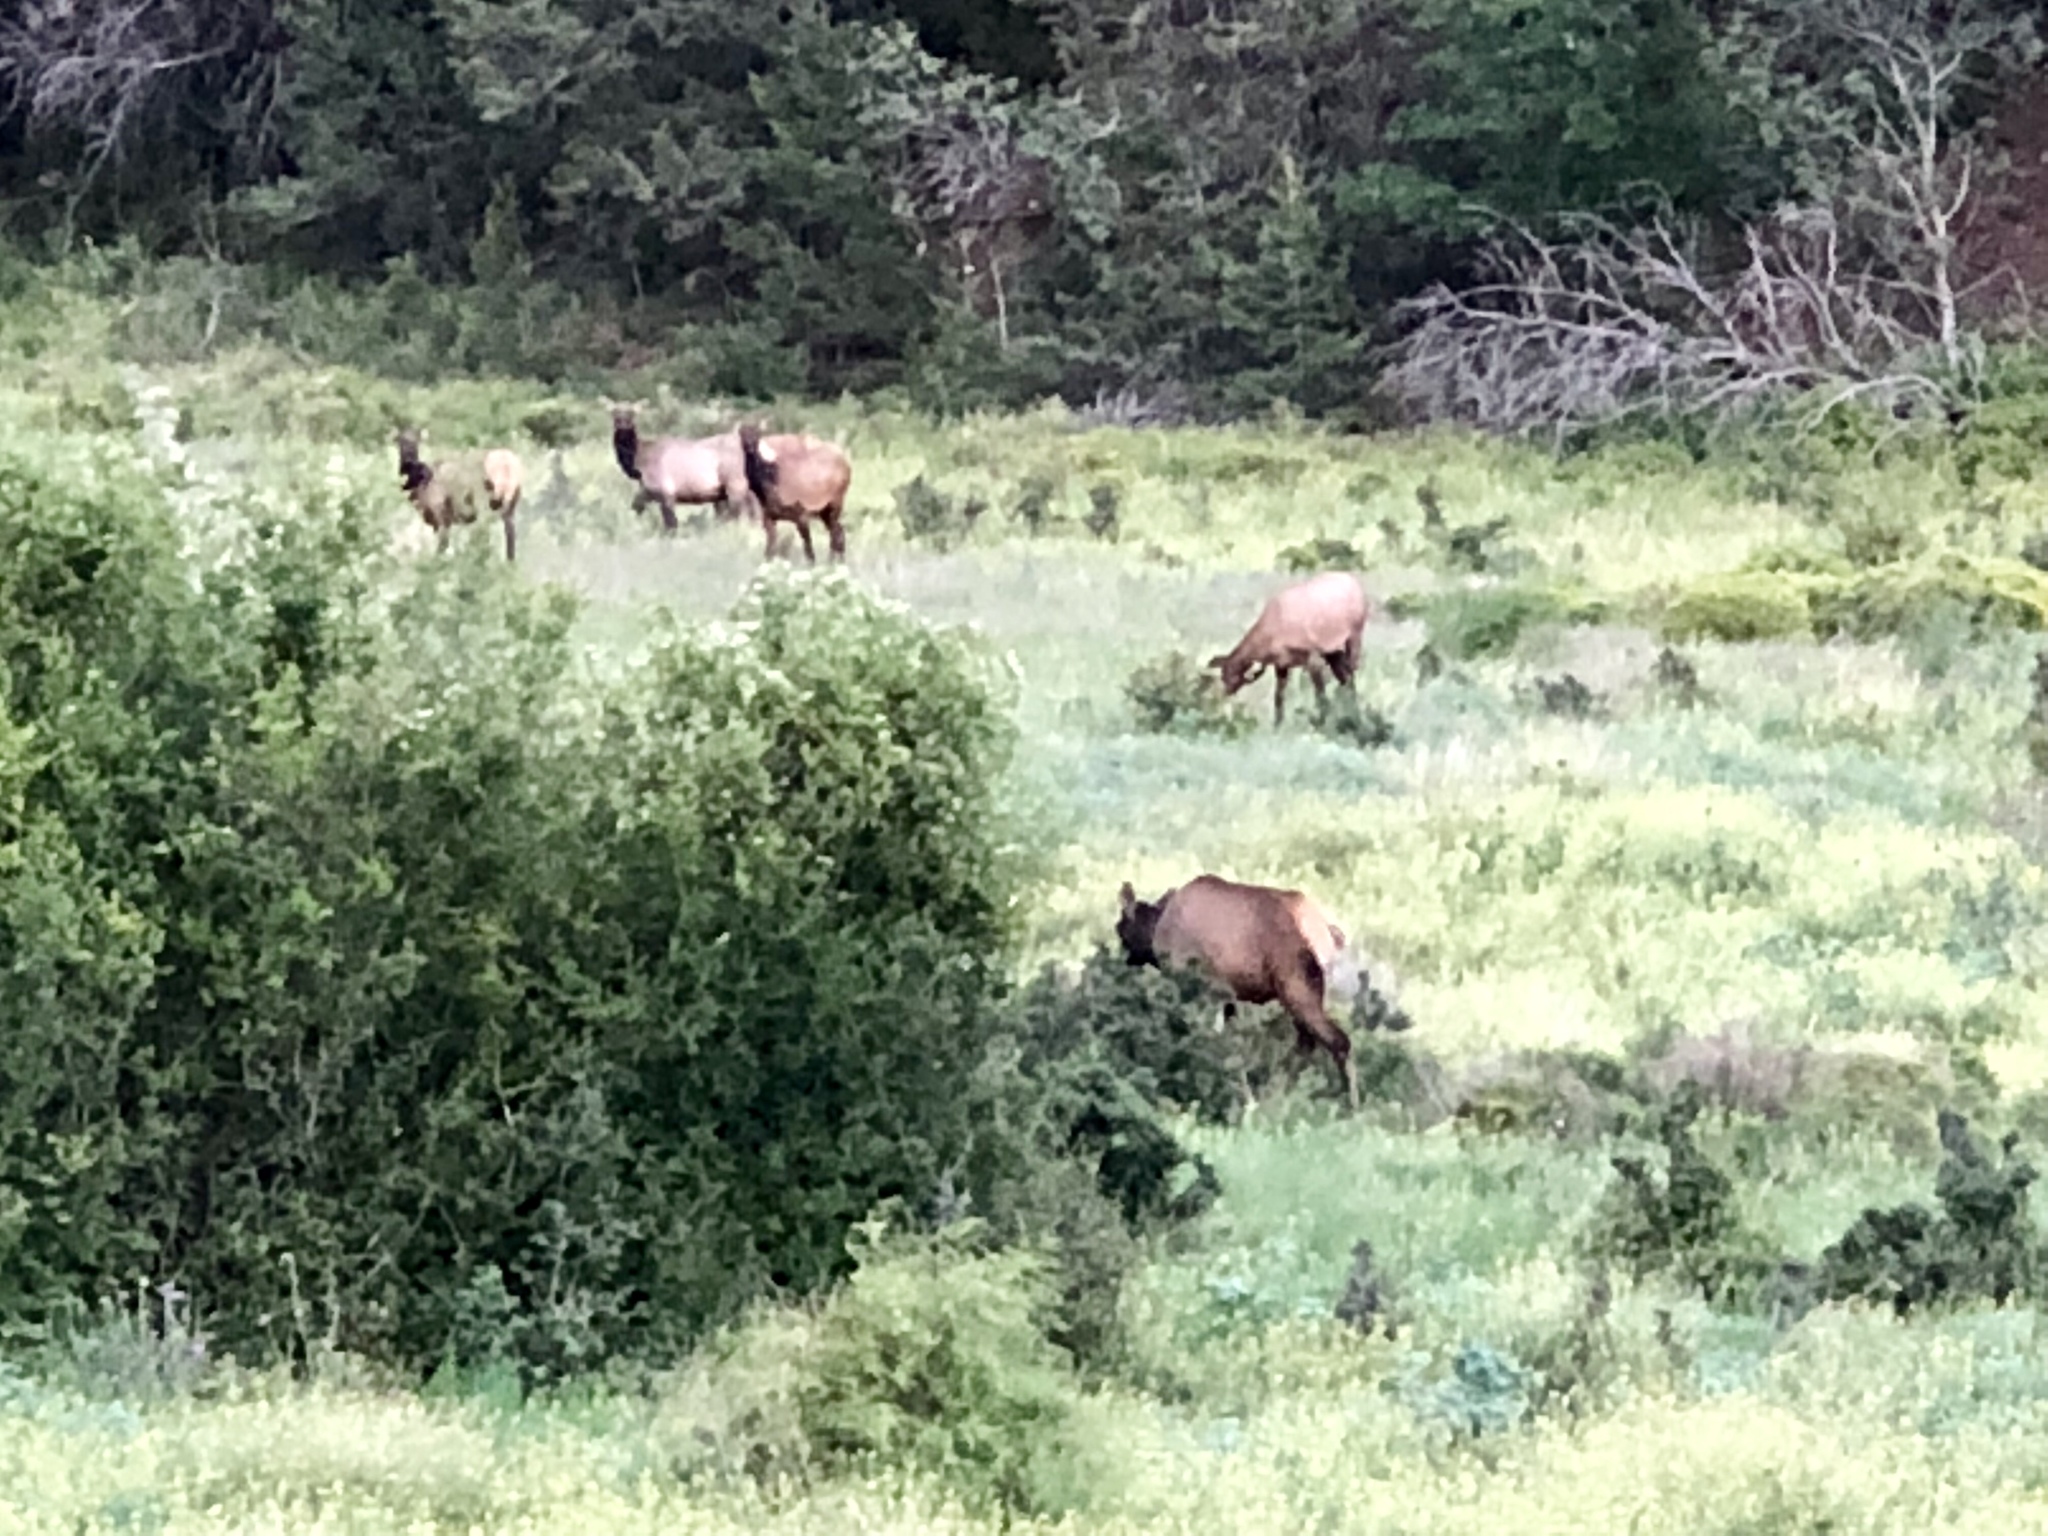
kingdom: Animalia
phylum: Chordata
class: Mammalia
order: Artiodactyla
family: Cervidae
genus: Cervus
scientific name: Cervus elaphus
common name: Red deer
